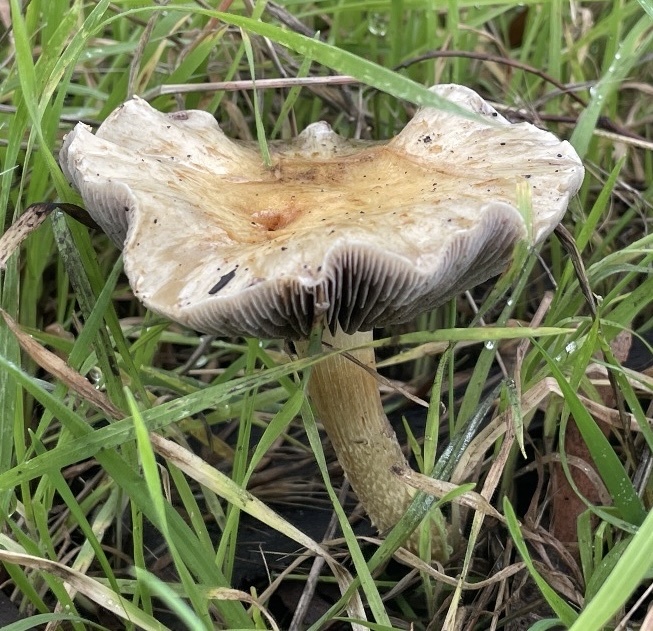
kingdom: Fungi
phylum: Basidiomycota
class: Agaricomycetes
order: Agaricales
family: Strophariaceae
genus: Leratiomyces
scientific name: Leratiomyces percevalii
